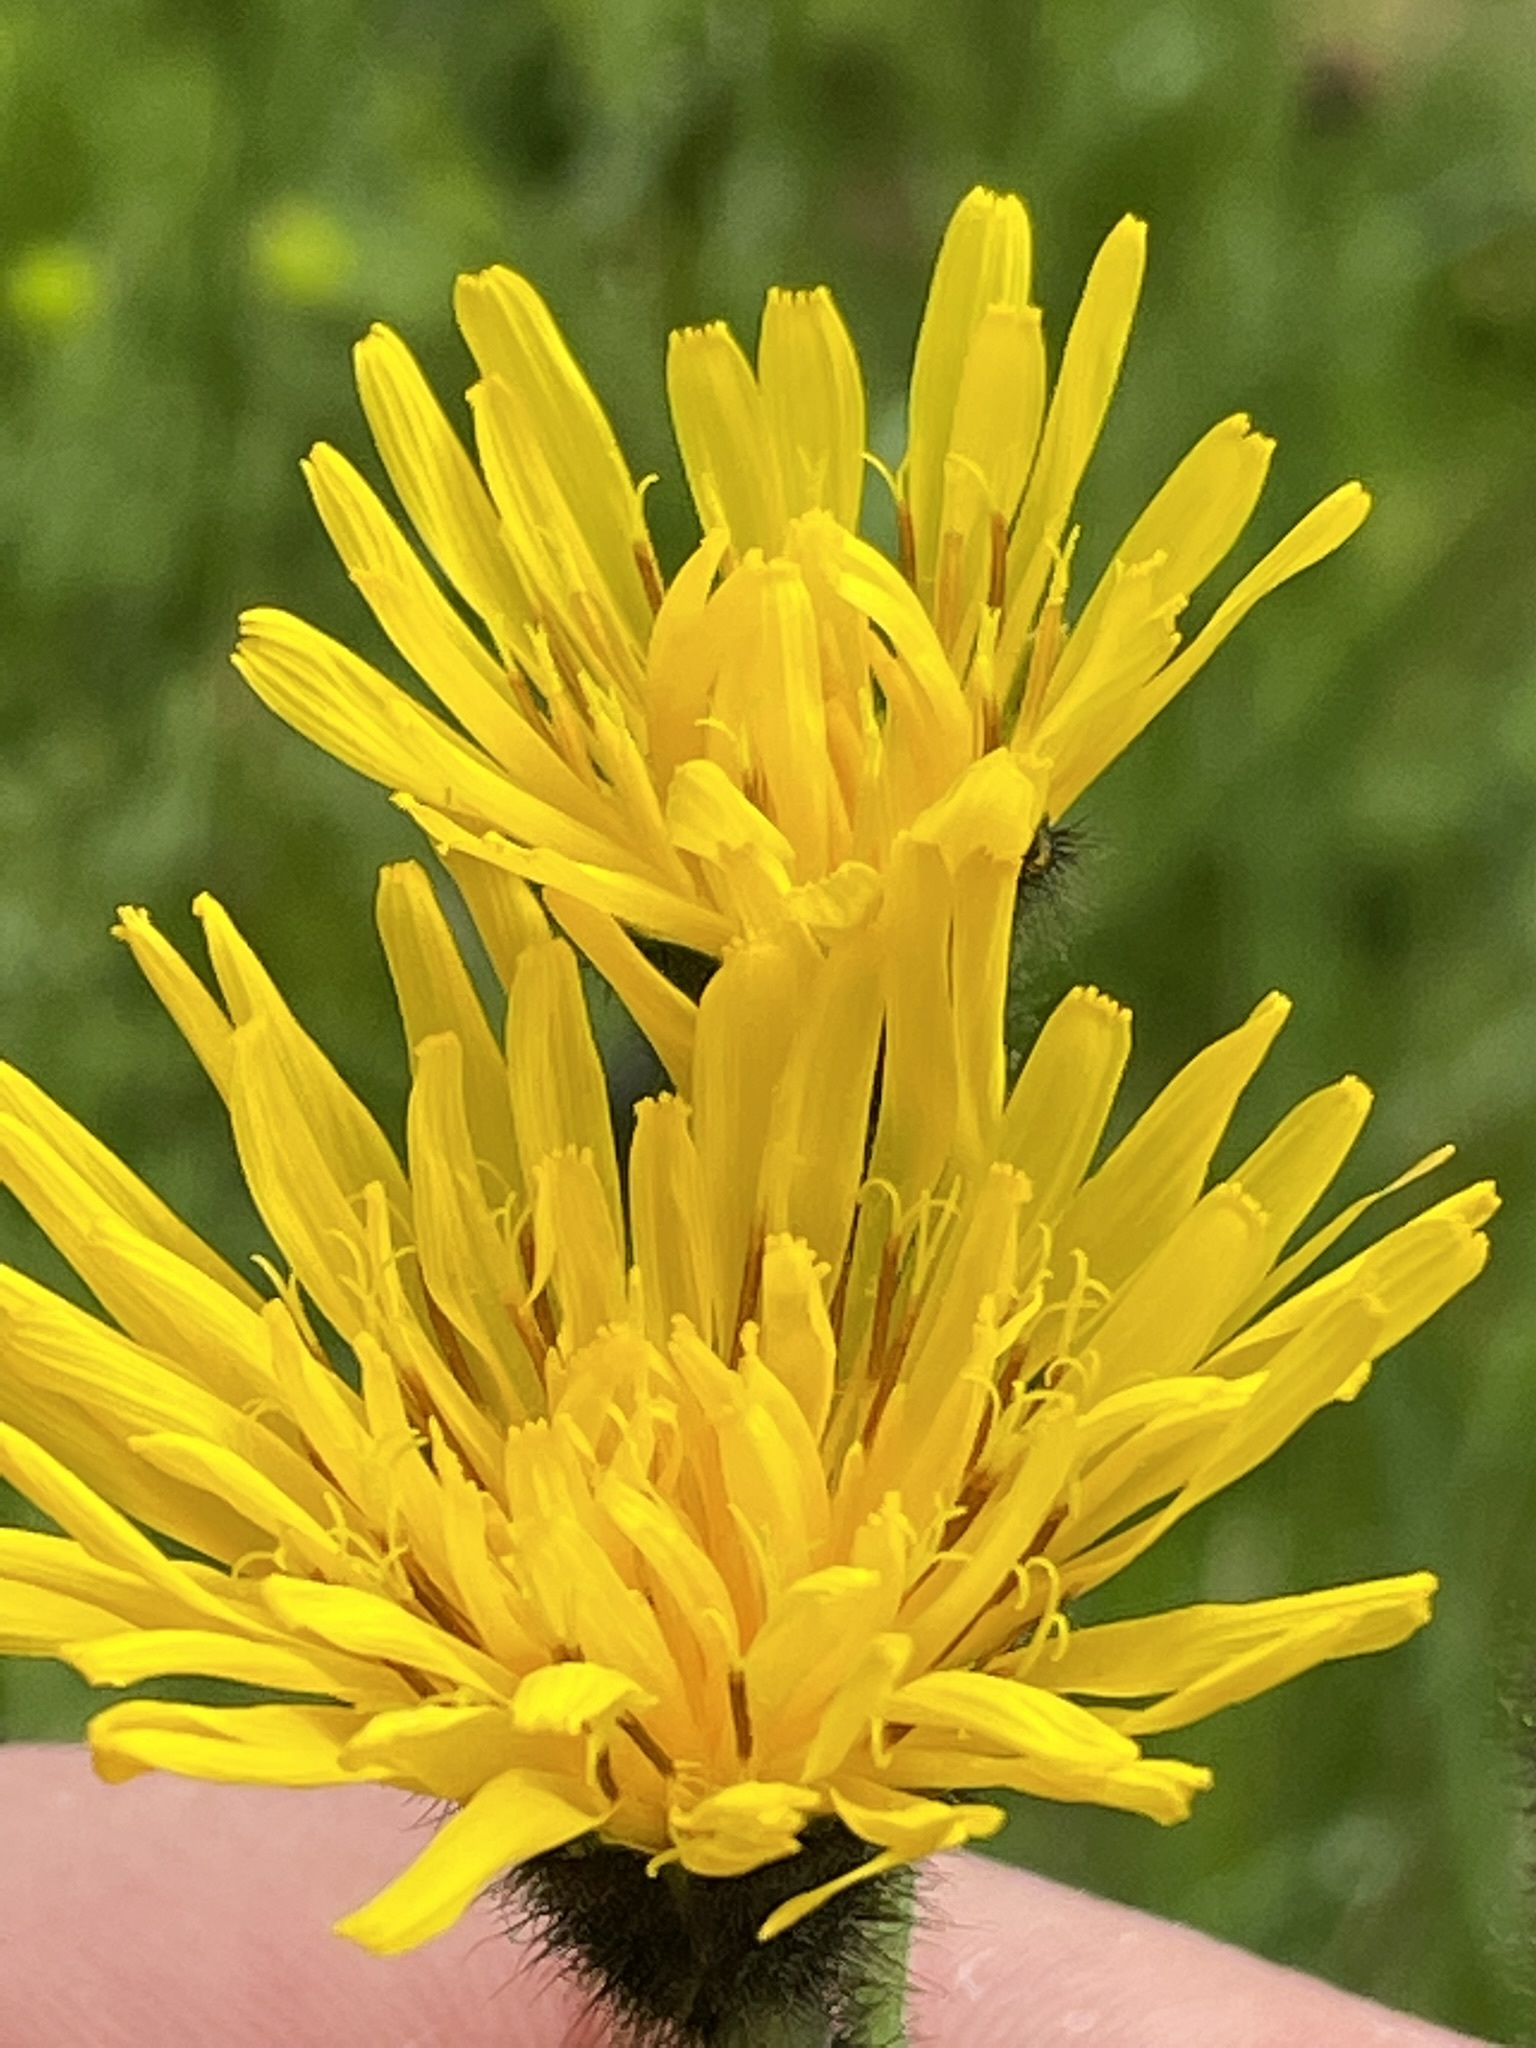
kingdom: Plantae
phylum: Tracheophyta
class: Magnoliopsida
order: Asterales
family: Asteraceae
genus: Willemetia
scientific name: Willemetia stipitata
